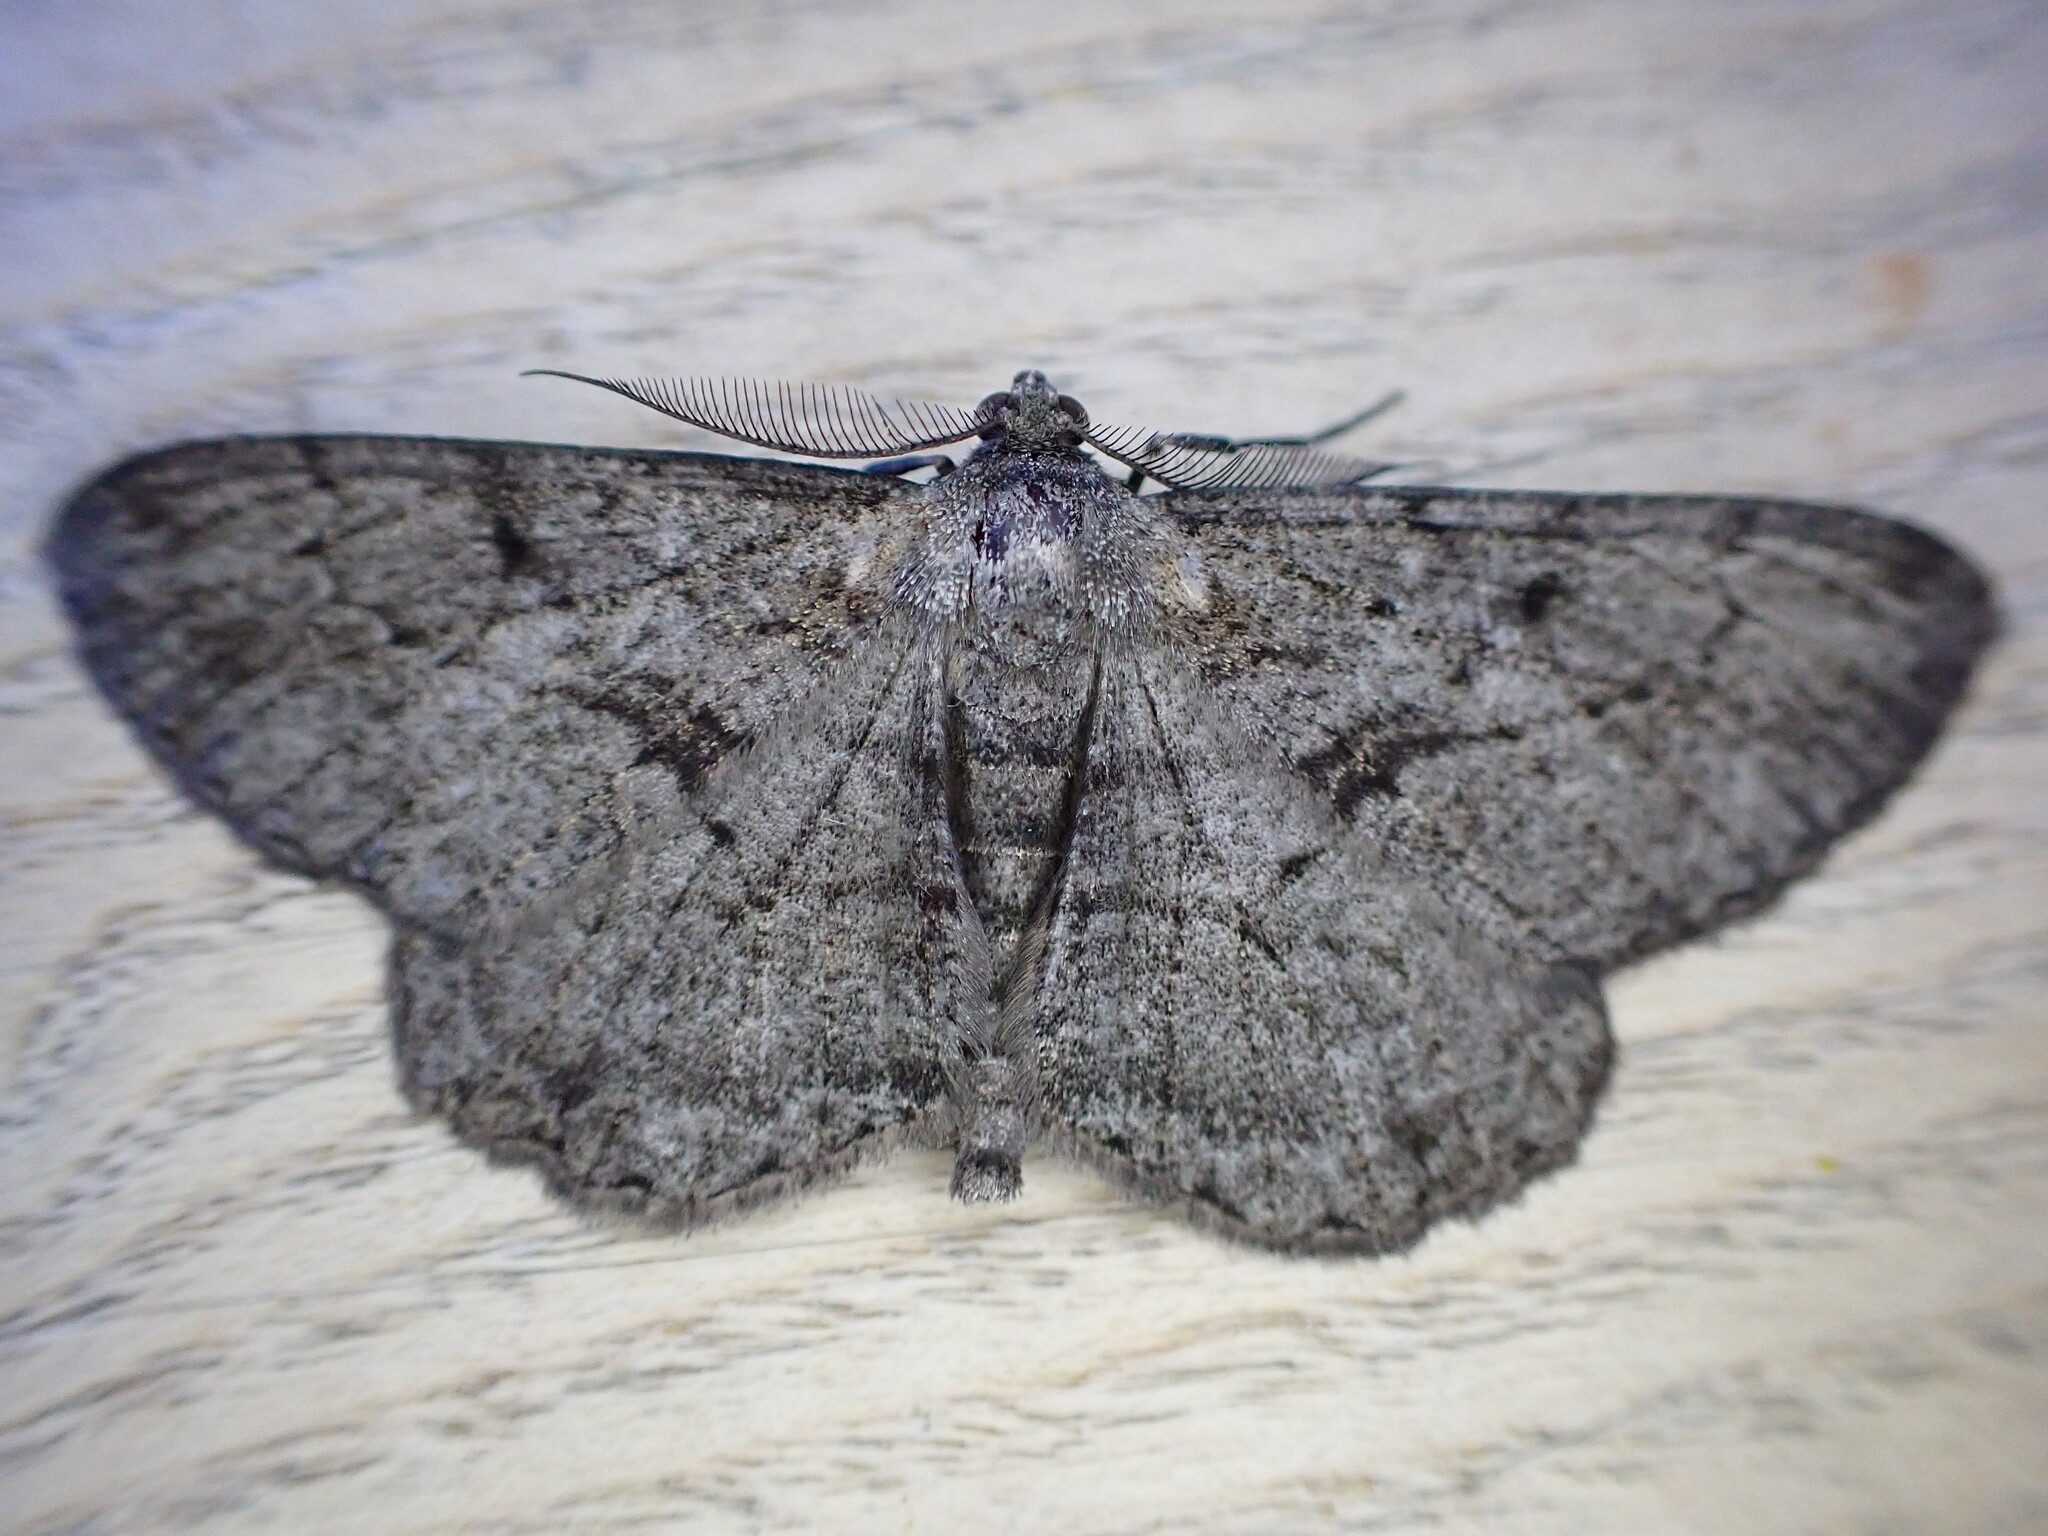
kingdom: Animalia
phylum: Arthropoda
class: Insecta
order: Lepidoptera
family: Geometridae
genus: Peribatodes
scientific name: Peribatodes rhomboidaria
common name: Willow beauty
